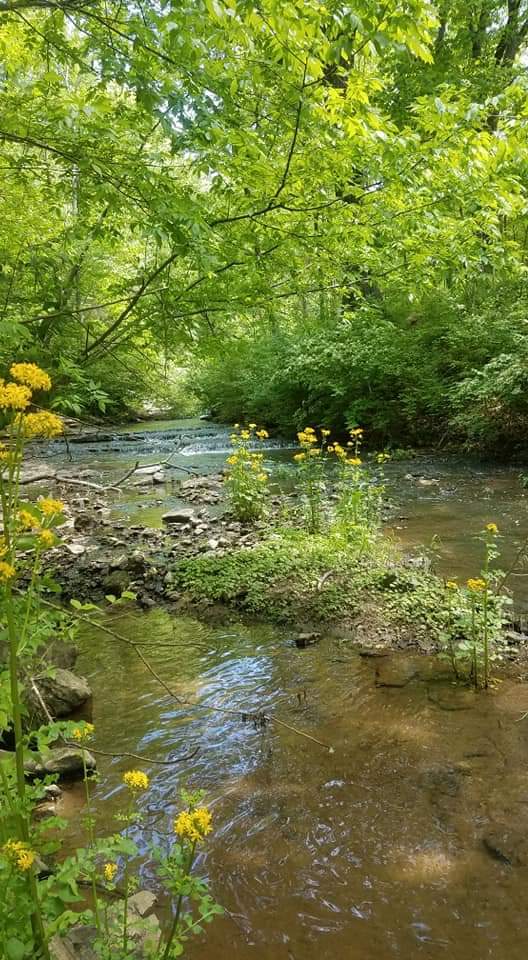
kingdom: Plantae
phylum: Tracheophyta
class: Magnoliopsida
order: Asterales
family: Asteraceae
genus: Packera
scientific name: Packera glabella
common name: Butterweed
